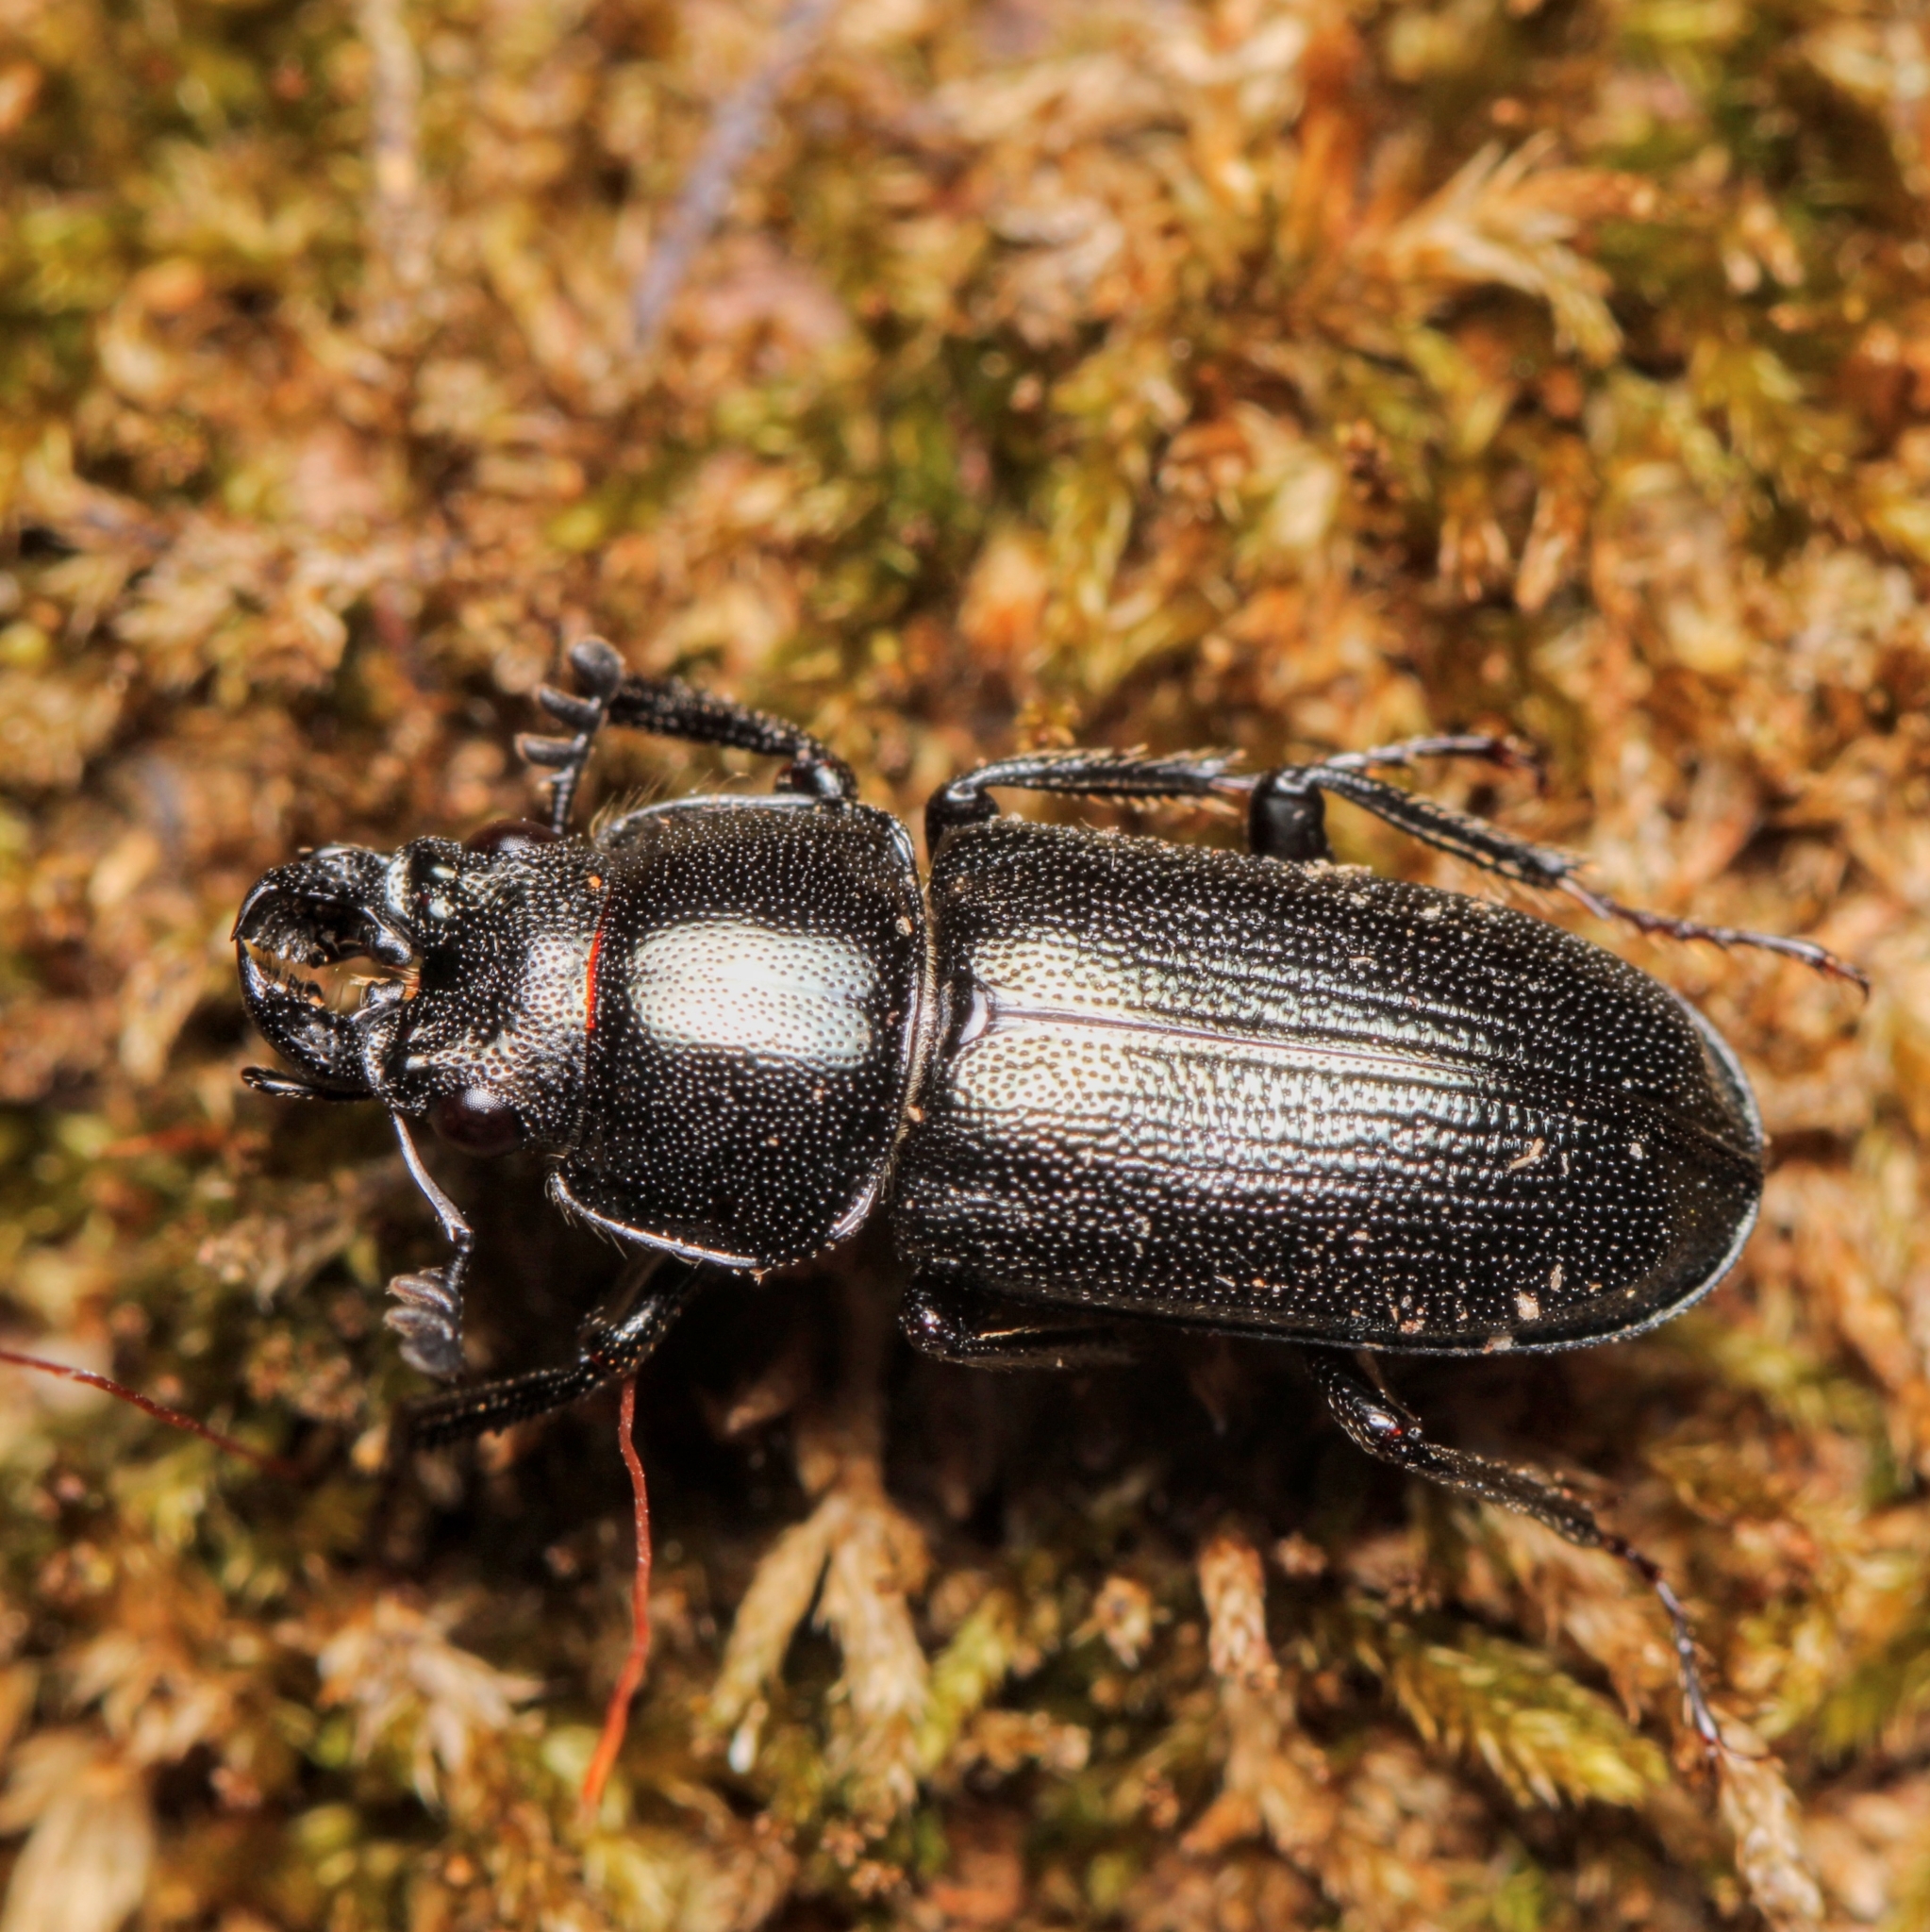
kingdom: Animalia
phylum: Arthropoda
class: Insecta
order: Coleoptera
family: Lucanidae
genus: Platycerus
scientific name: Platycerus quercus
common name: Oak stag beetle
